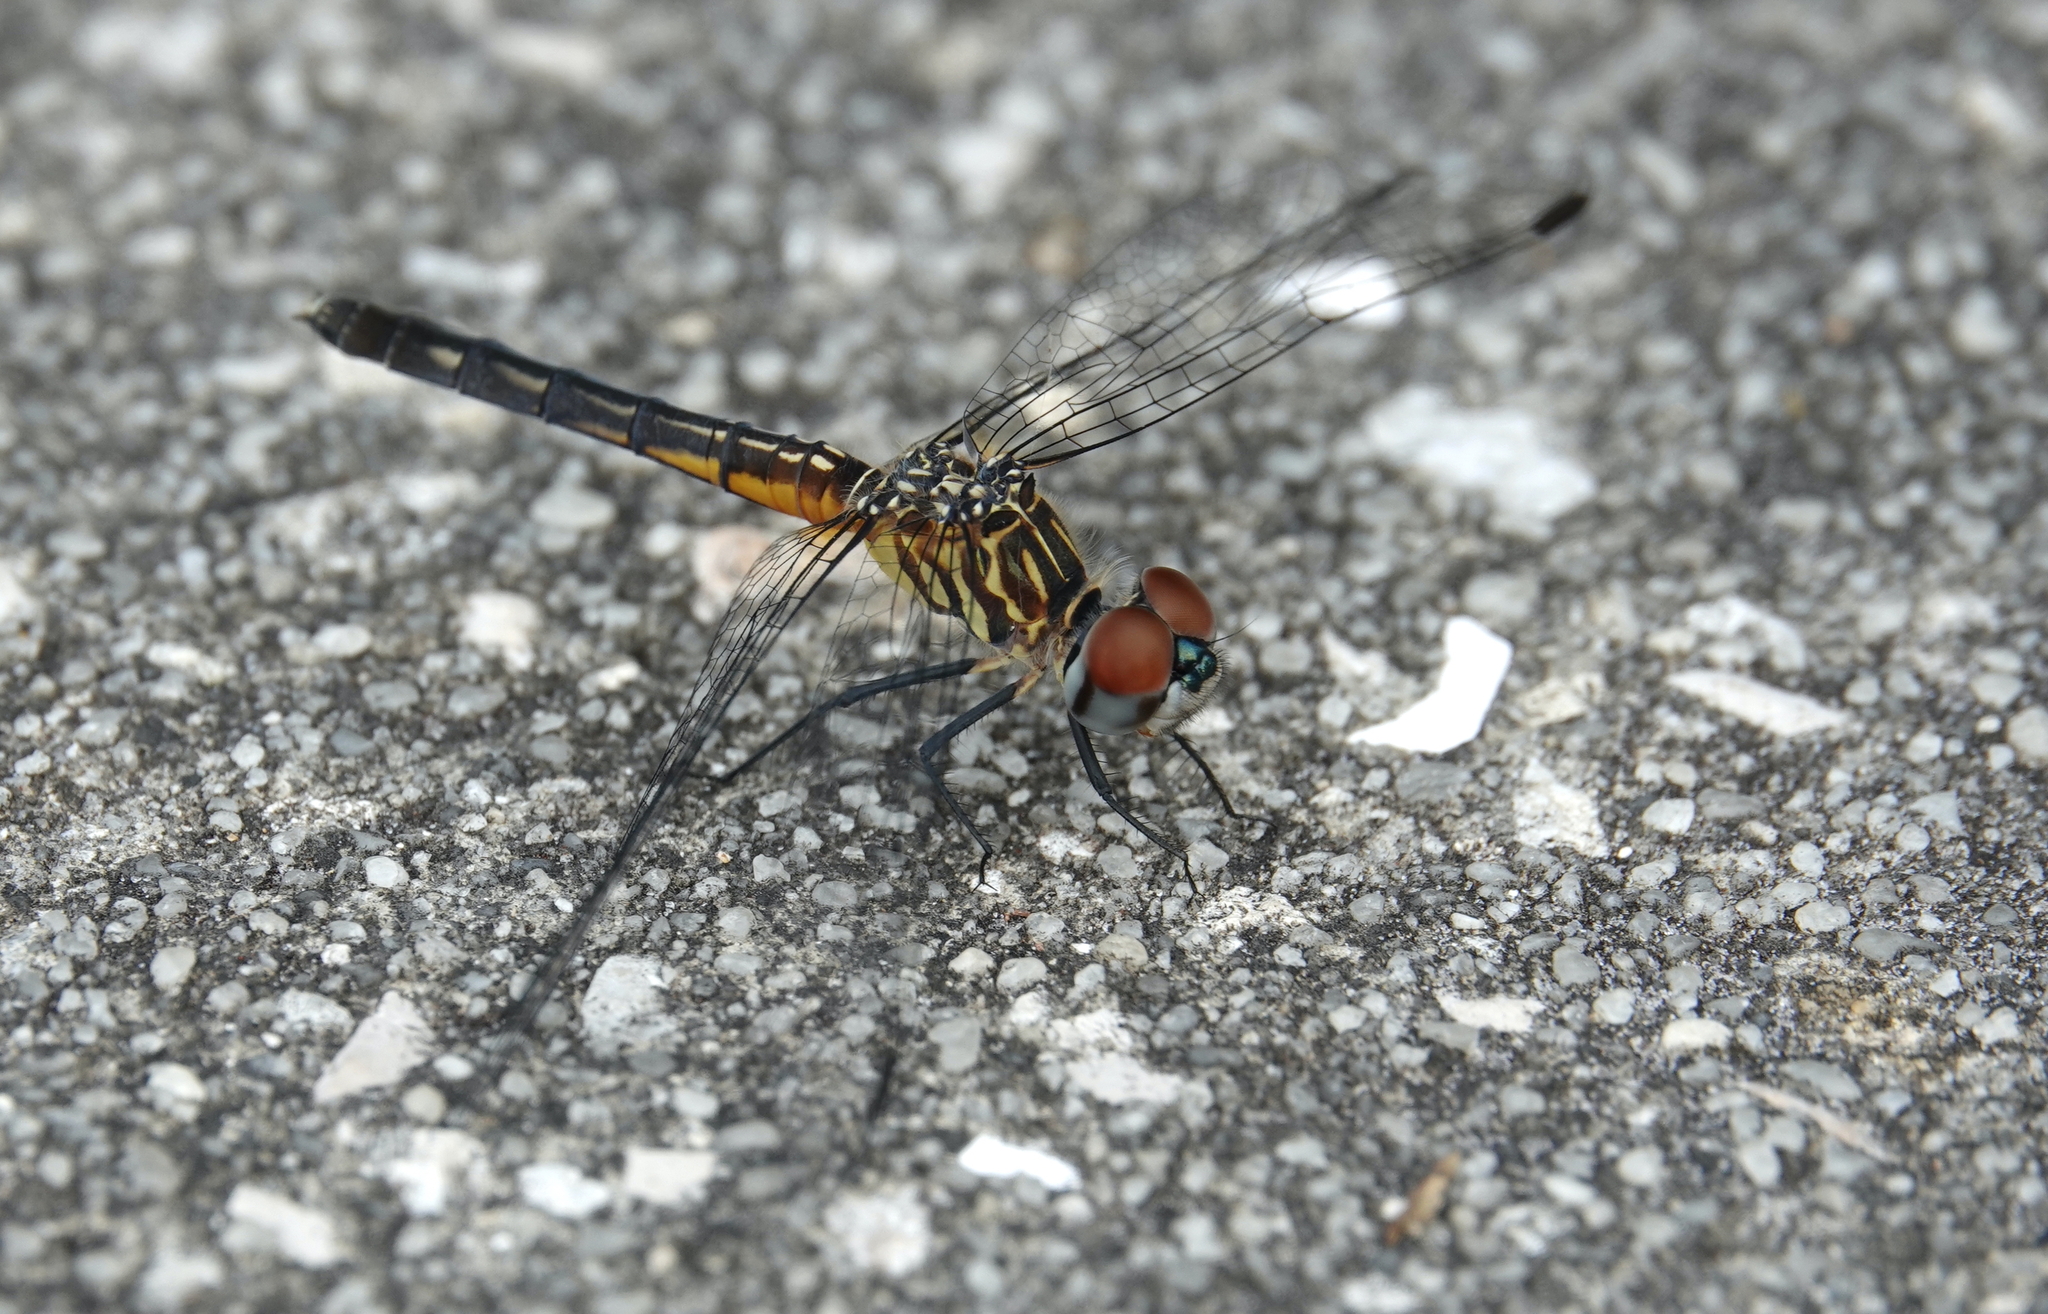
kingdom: Animalia
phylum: Arthropoda
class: Insecta
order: Odonata
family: Libellulidae
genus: Pachydiplax
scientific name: Pachydiplax longipennis
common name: Blue dasher
